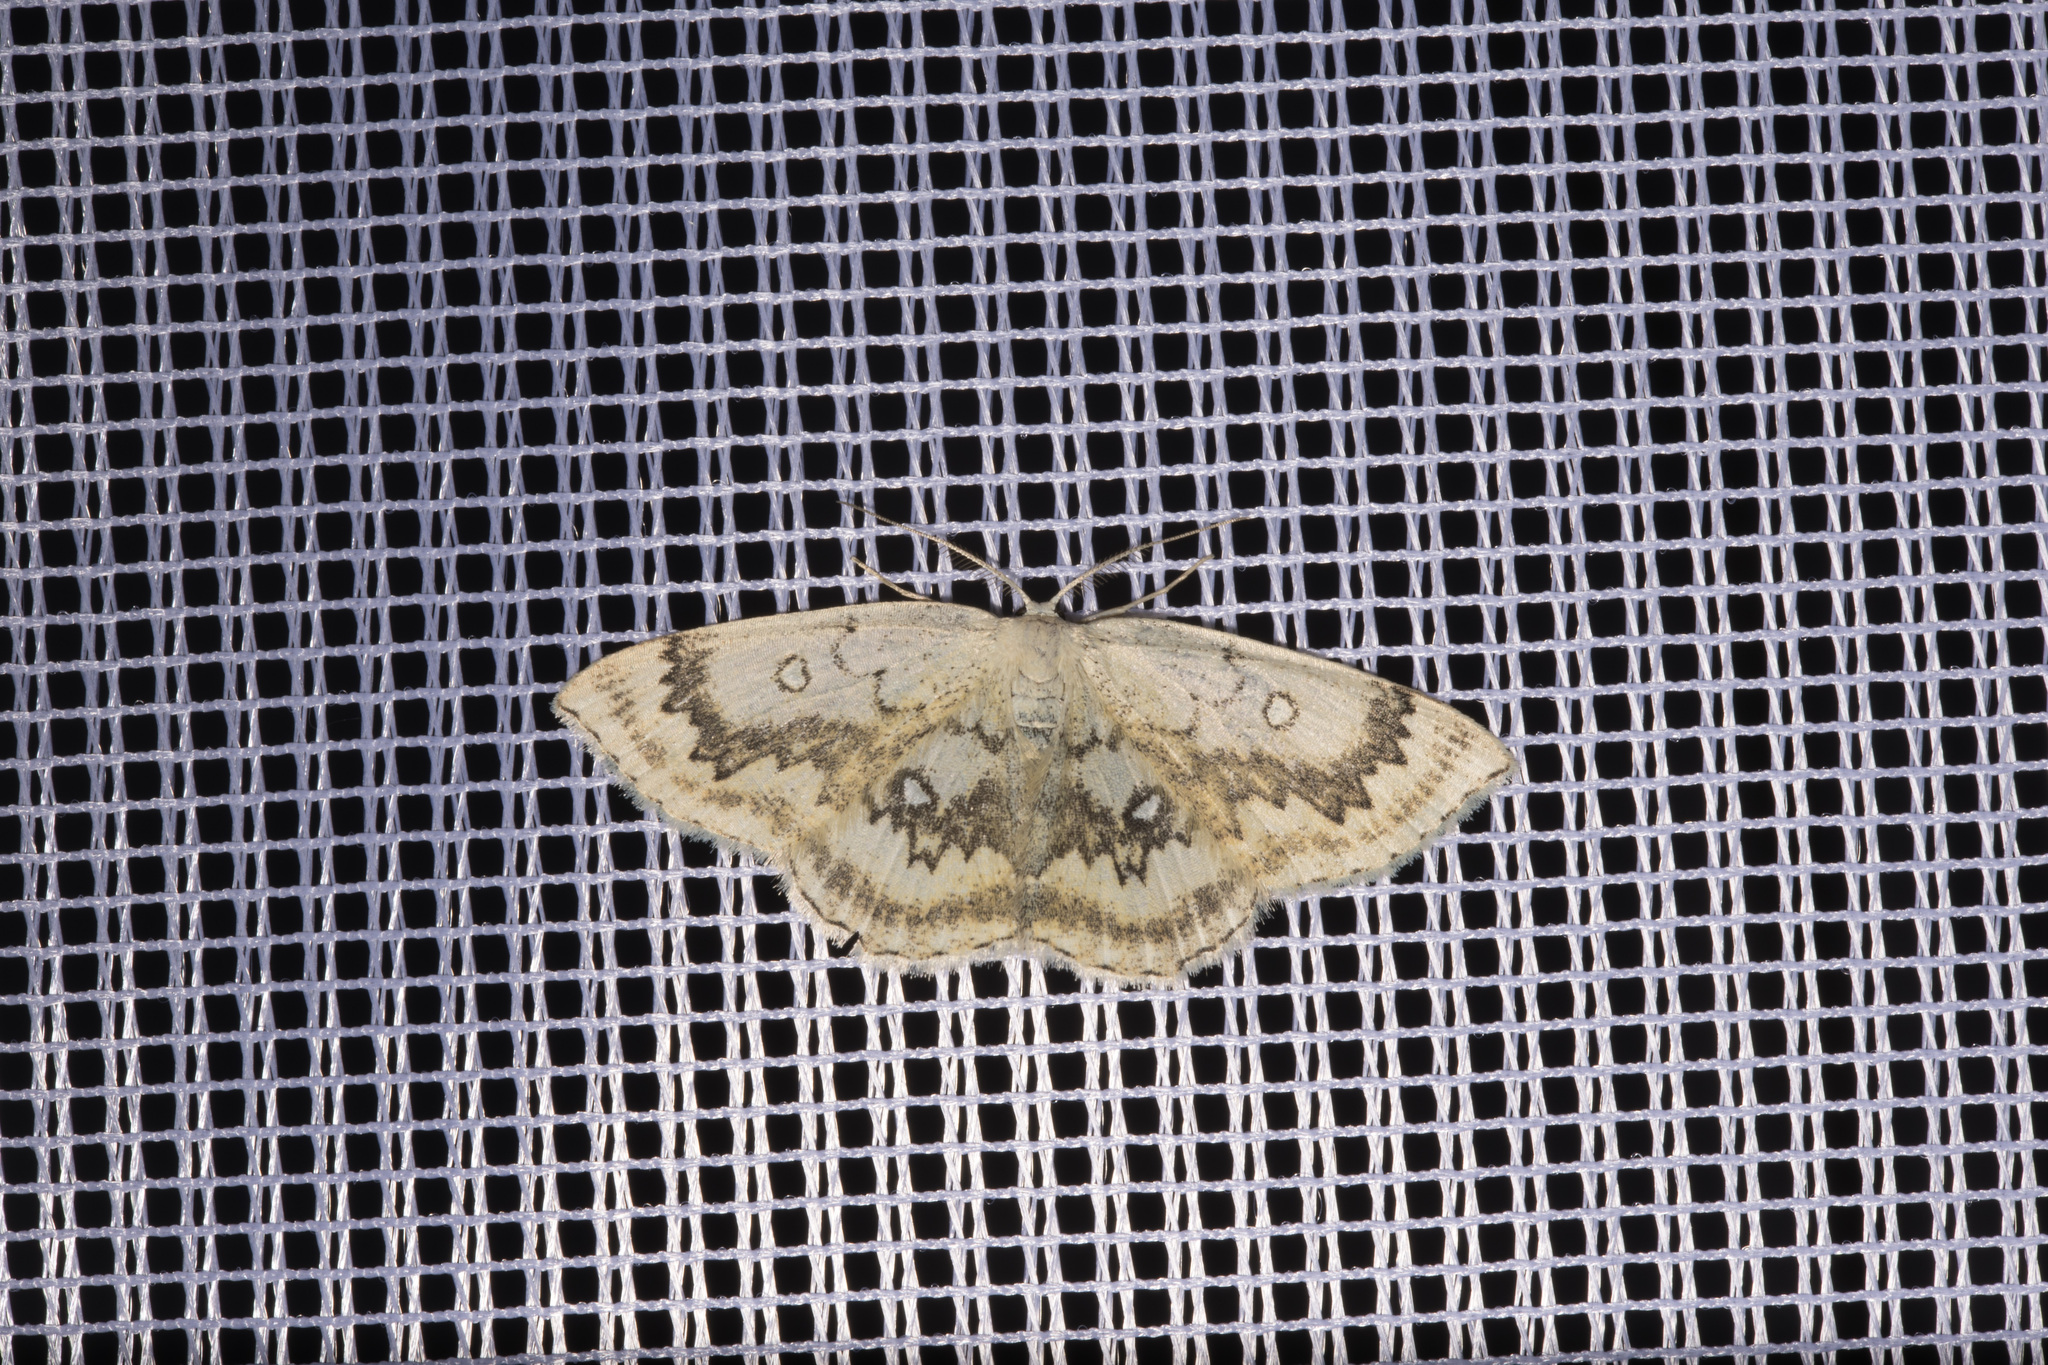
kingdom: Animalia
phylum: Arthropoda
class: Insecta
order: Lepidoptera
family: Geometridae
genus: Cyclophora
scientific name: Cyclophora annularia
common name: Mocha
